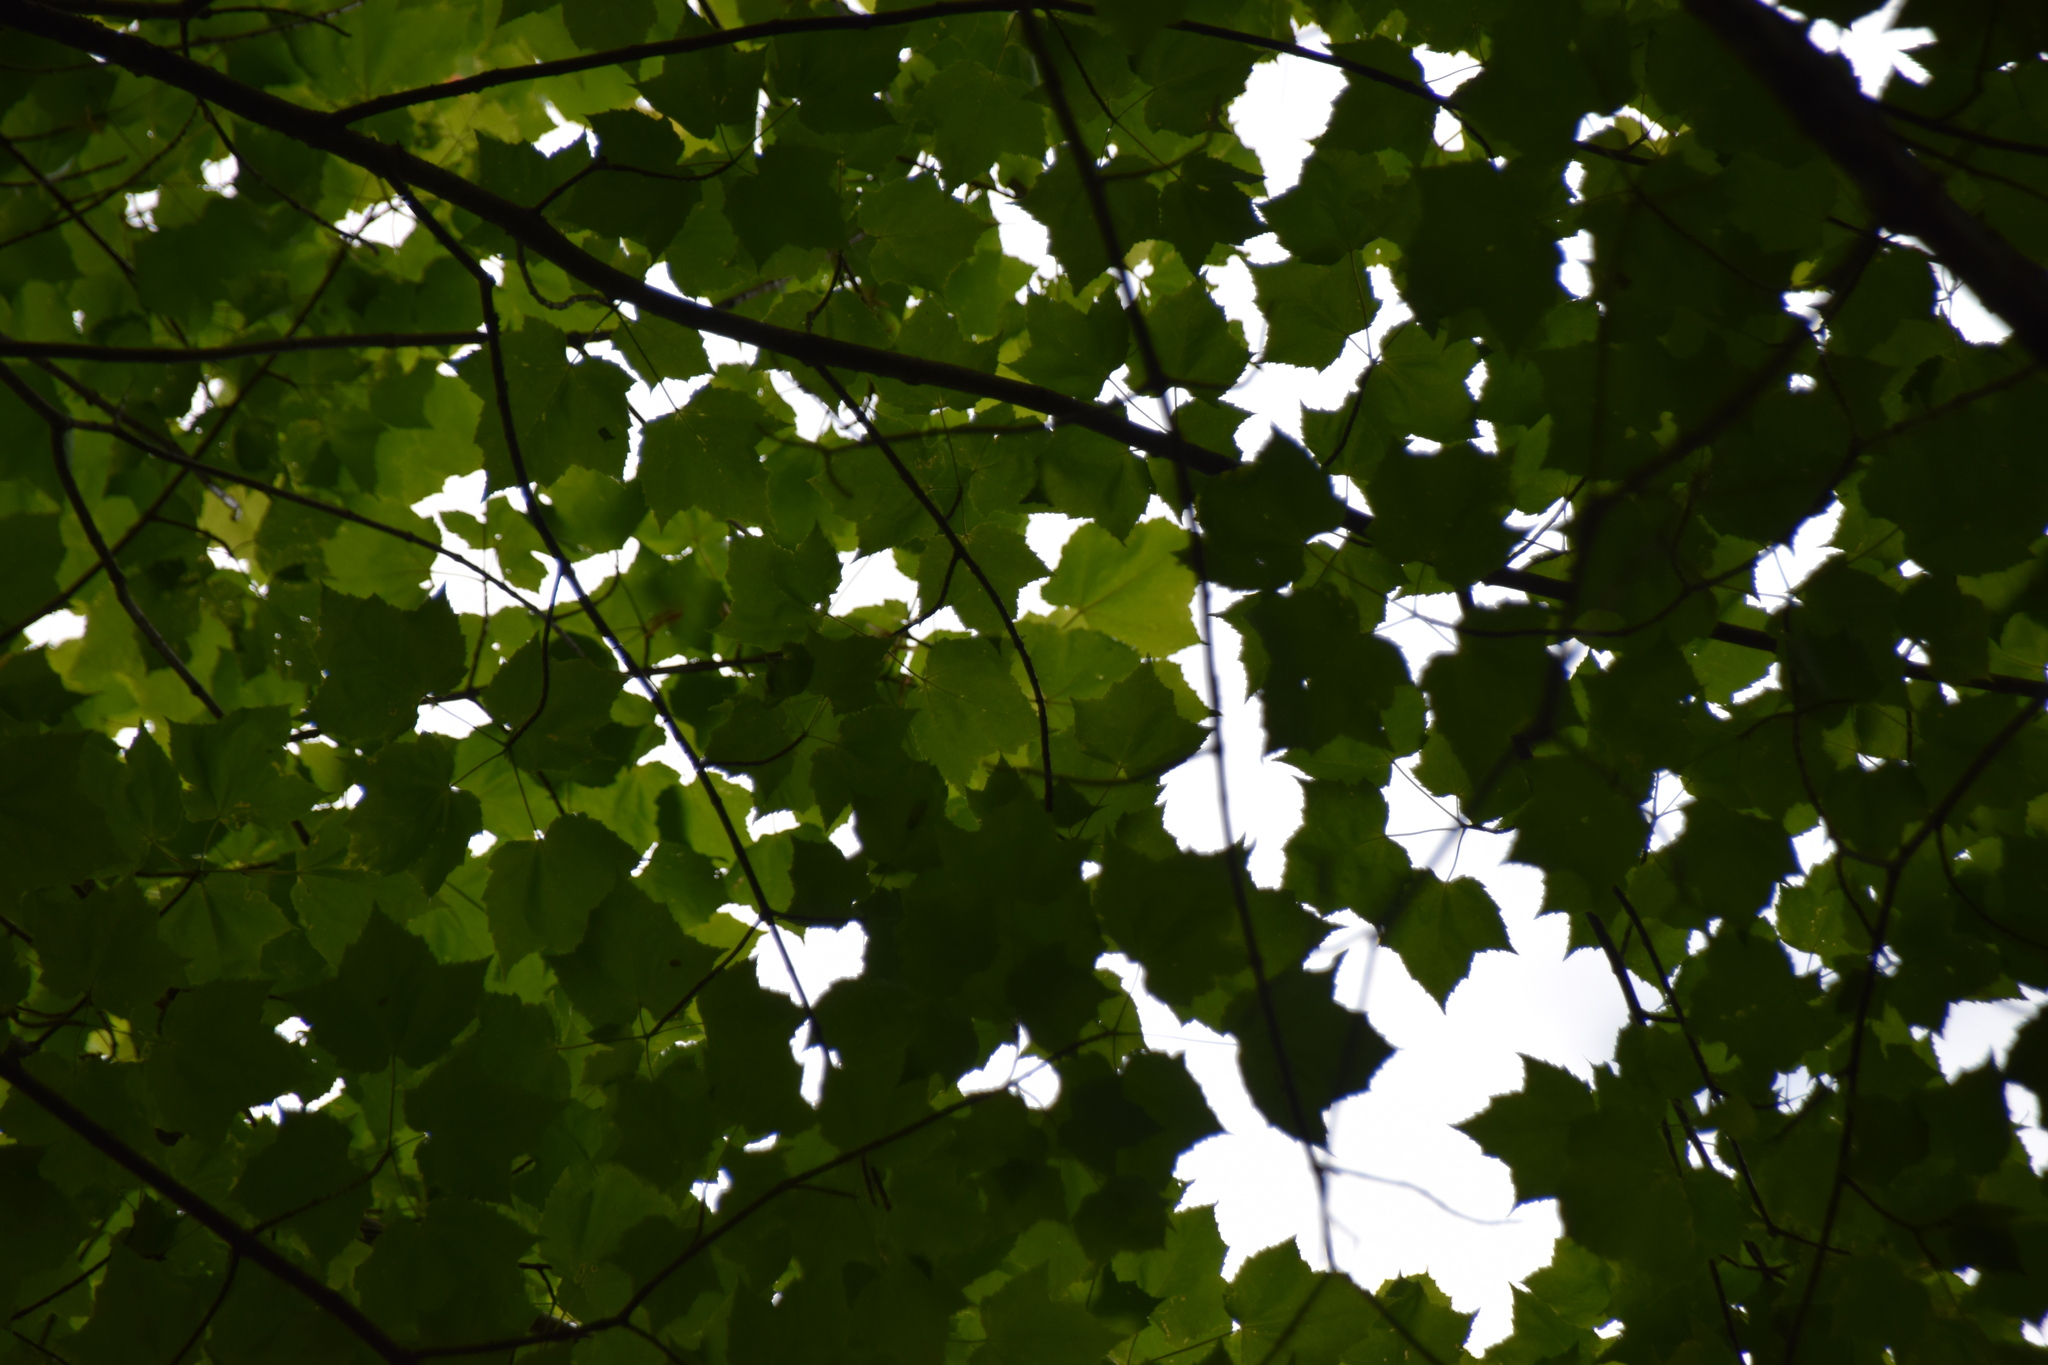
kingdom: Plantae
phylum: Tracheophyta
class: Magnoliopsida
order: Sapindales
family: Sapindaceae
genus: Acer
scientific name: Acer rubrum
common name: Red maple
